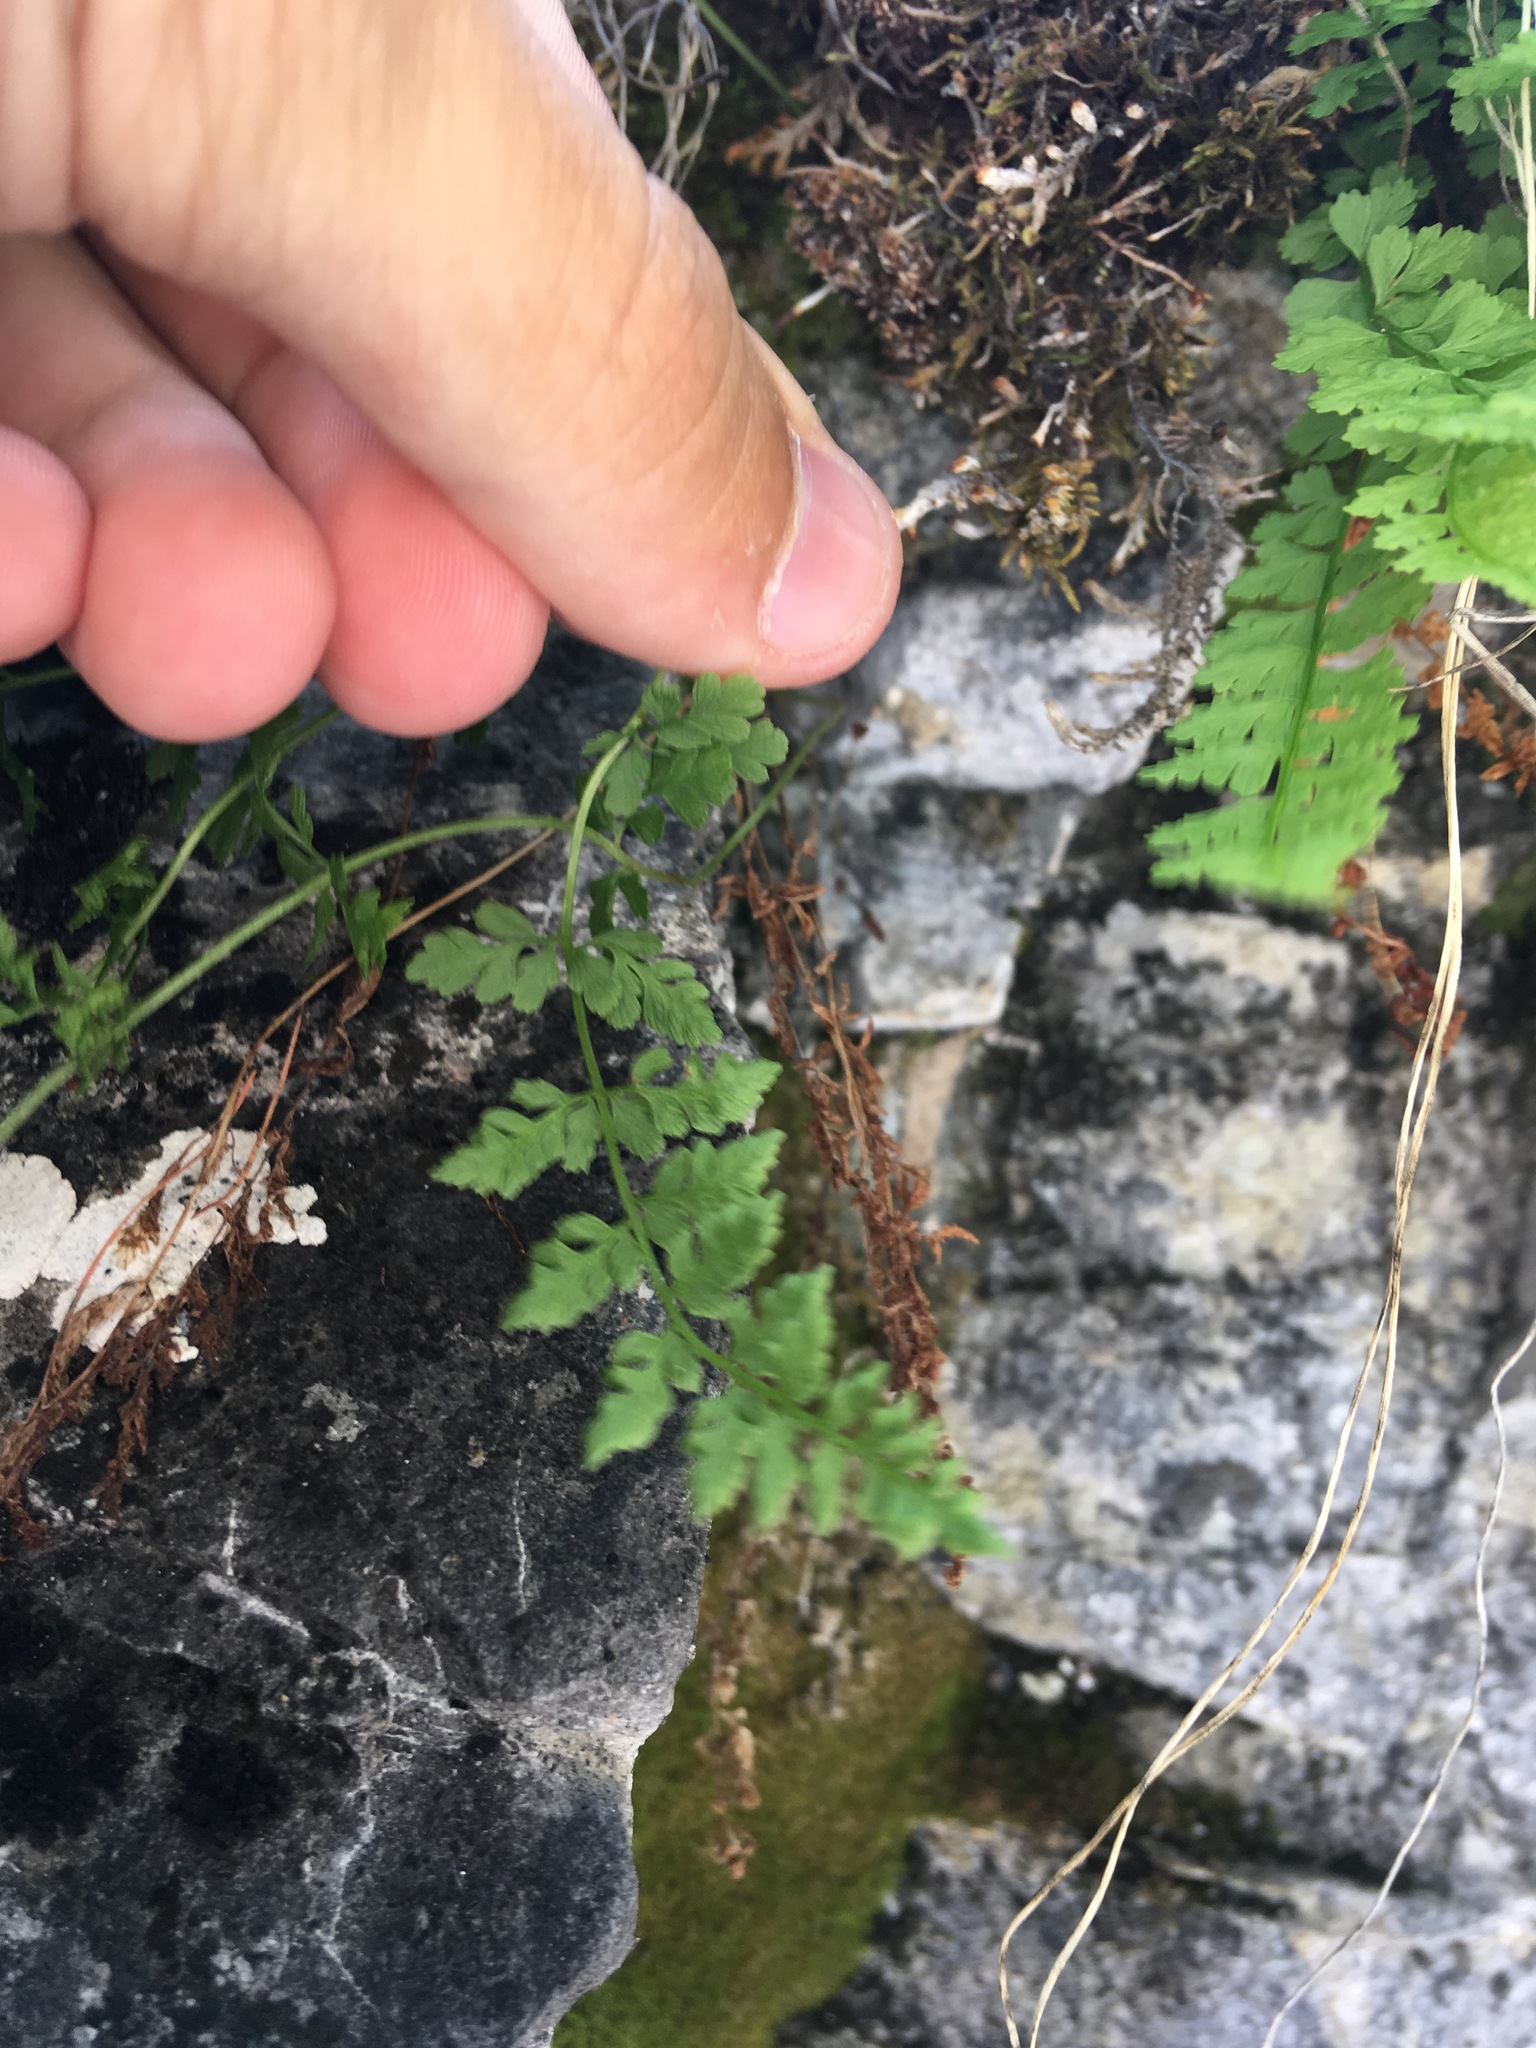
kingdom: Plantae
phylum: Tracheophyta
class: Polypodiopsida
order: Polypodiales
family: Cystopteridaceae
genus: Cystopteris
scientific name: Cystopteris fragilis
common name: Brittle bladder fern
